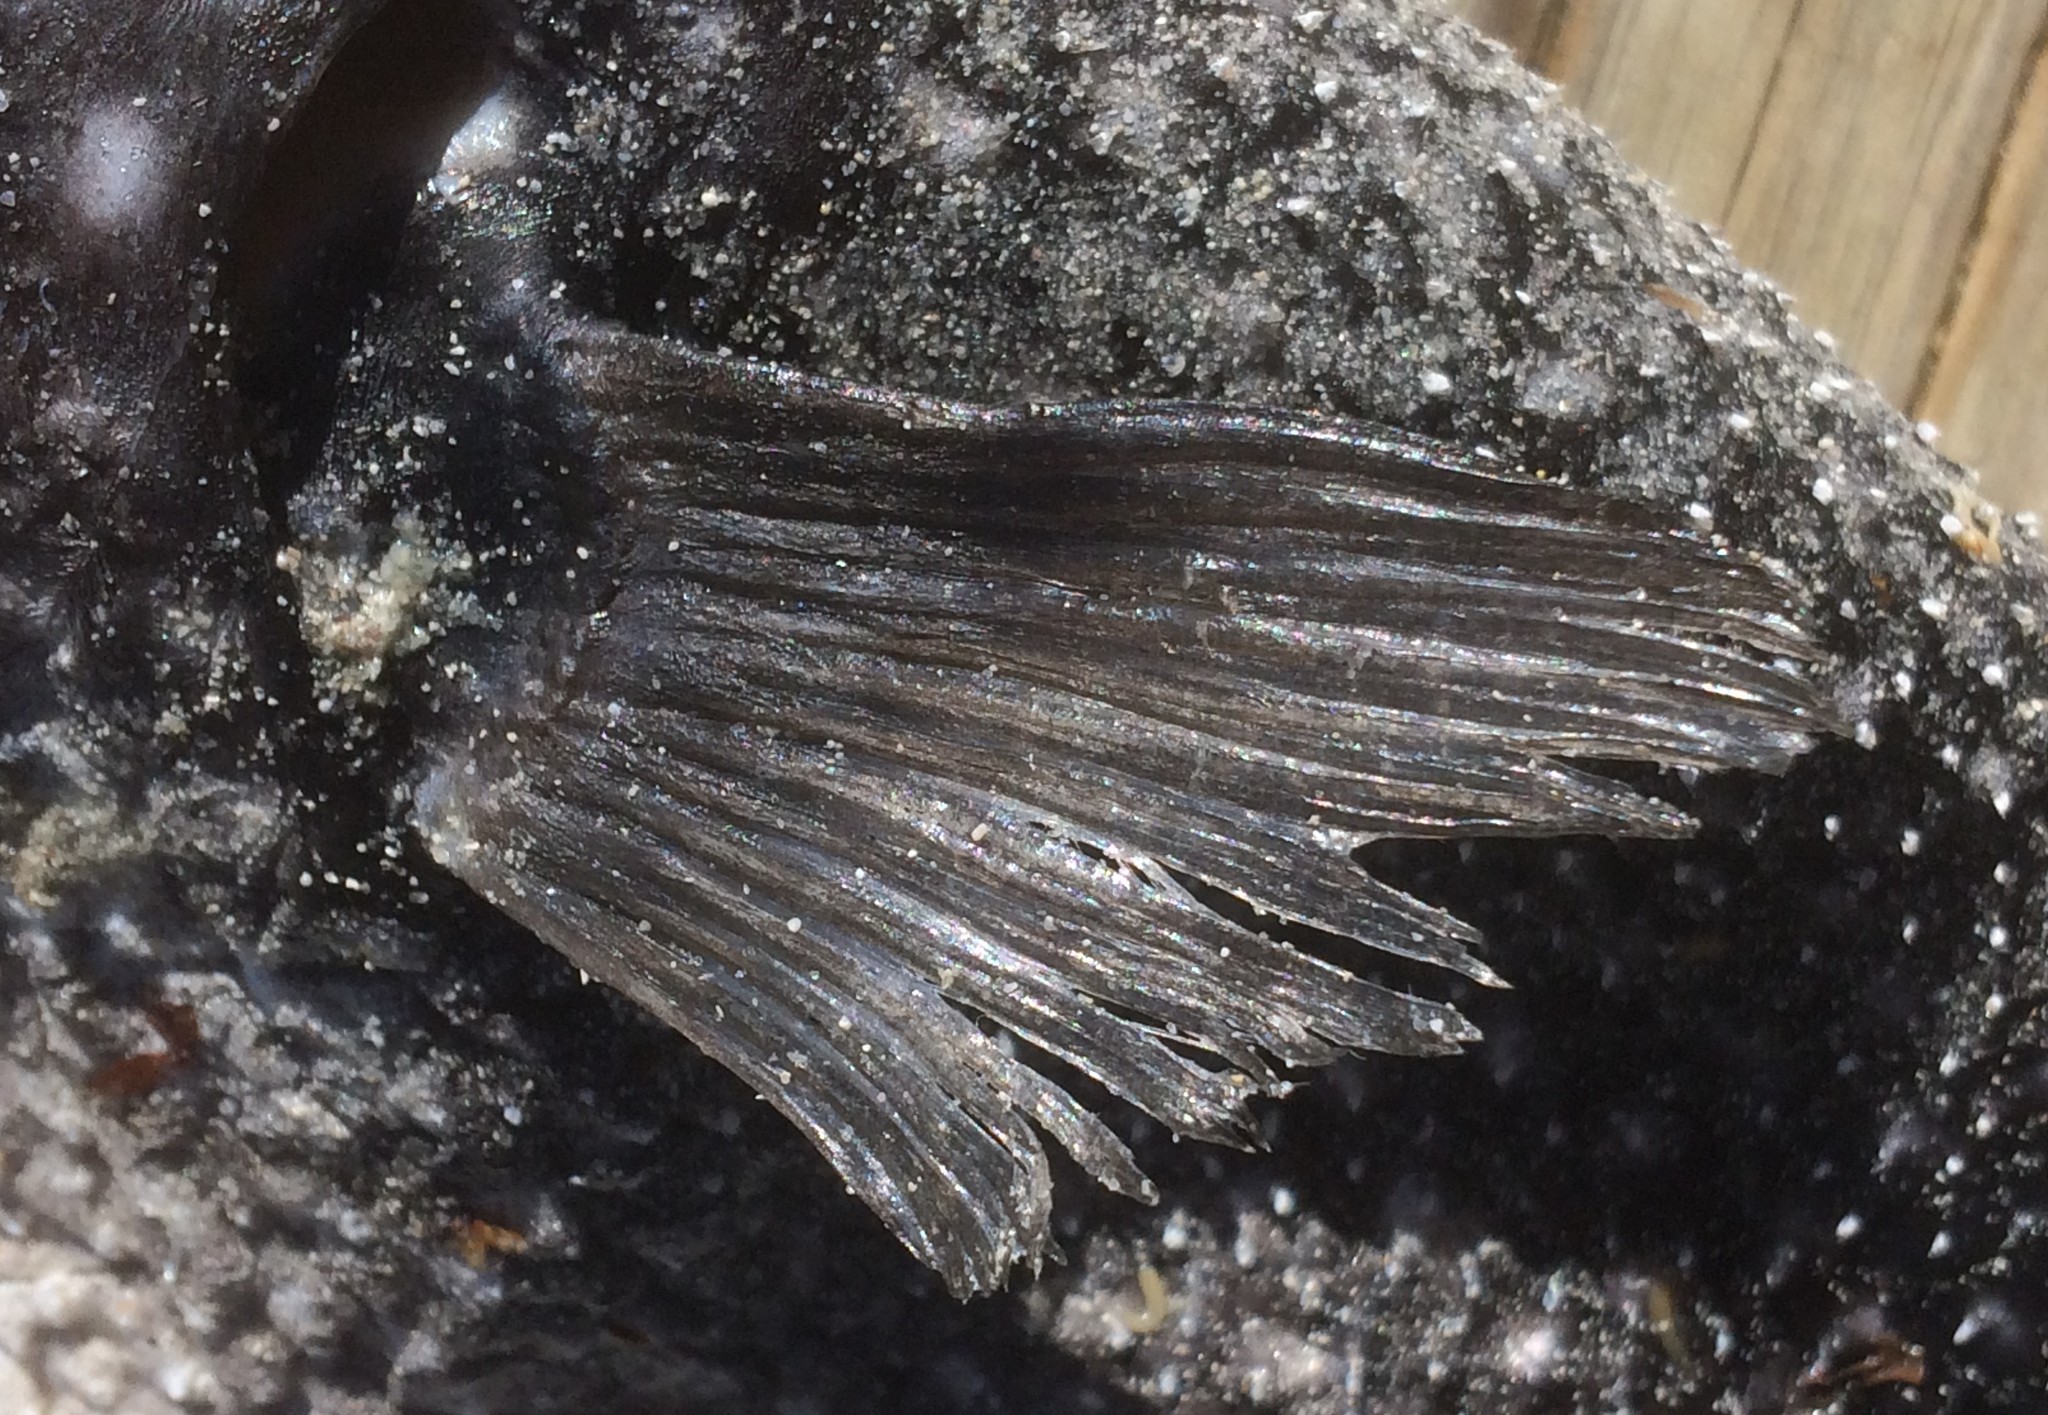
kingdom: Animalia
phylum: Chordata
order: Tetraodontiformes
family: Tetraodontidae
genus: Arothron
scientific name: Arothron firmamentum
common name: Starry toado
